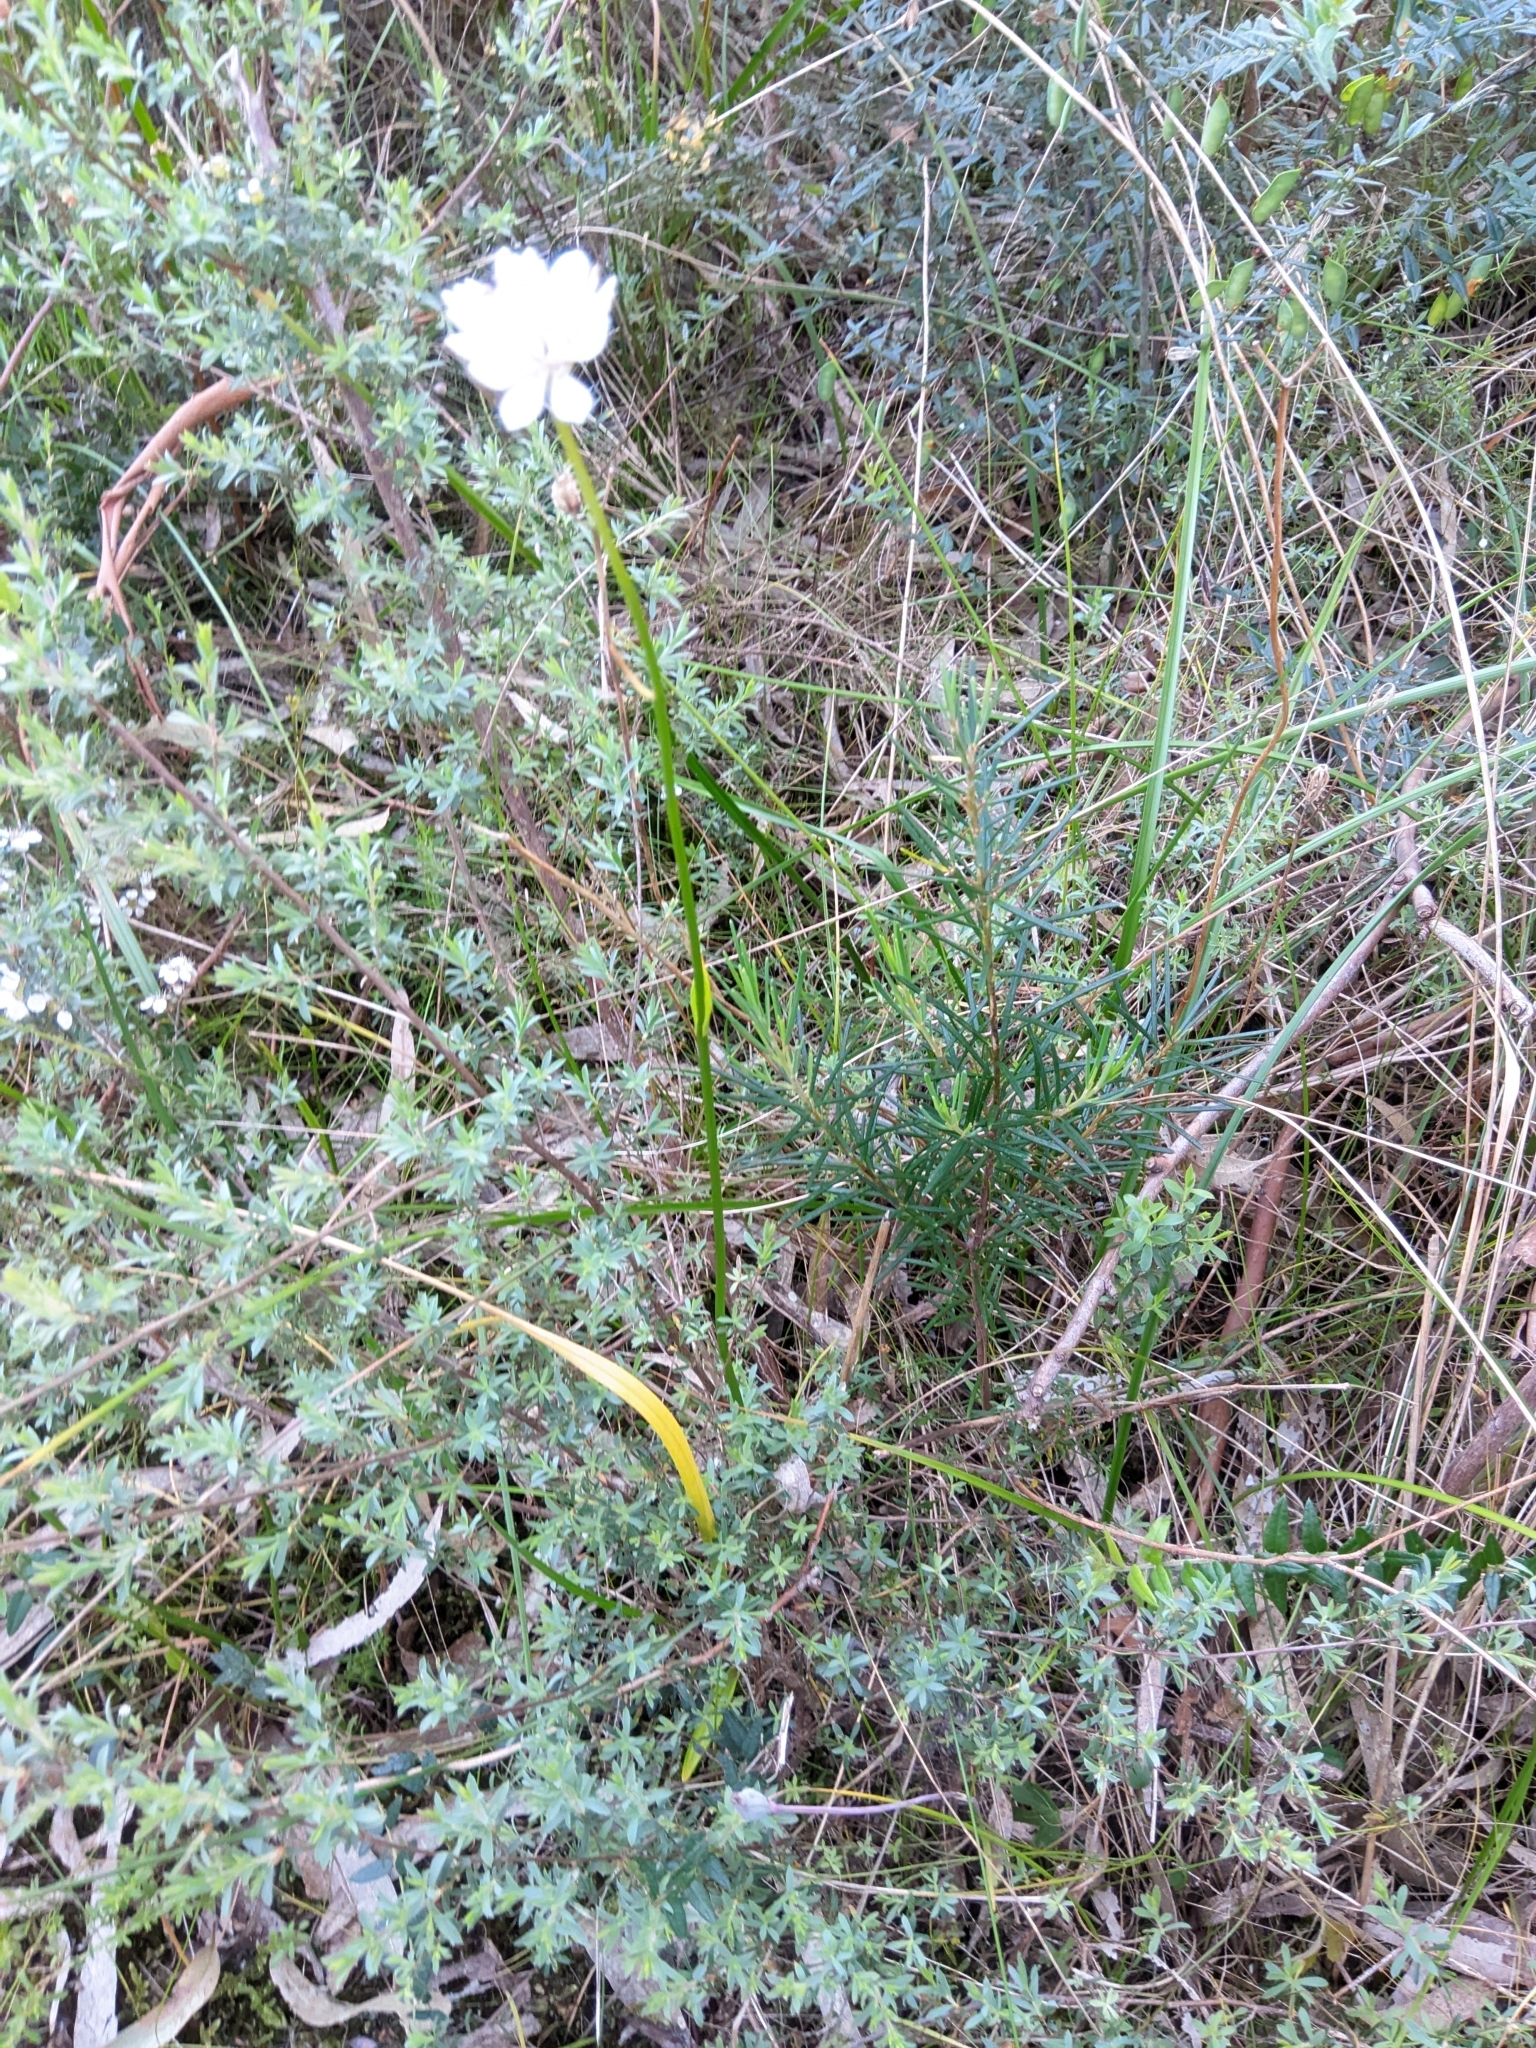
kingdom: Plantae
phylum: Tracheophyta
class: Liliopsida
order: Liliales
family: Colchicaceae
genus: Burchardia
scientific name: Burchardia umbellata
